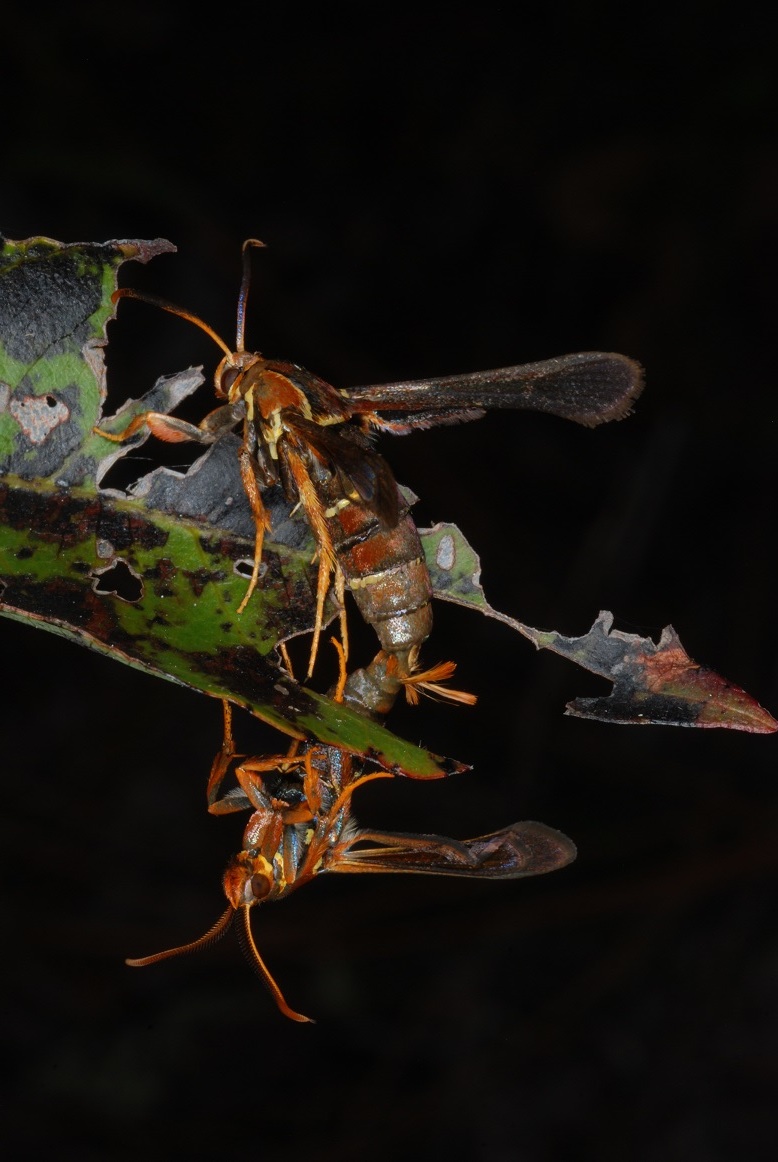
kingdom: Animalia
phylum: Arthropoda
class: Insecta
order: Lepidoptera
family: Sesiidae
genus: Vitacea
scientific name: Vitacea polistiformis
